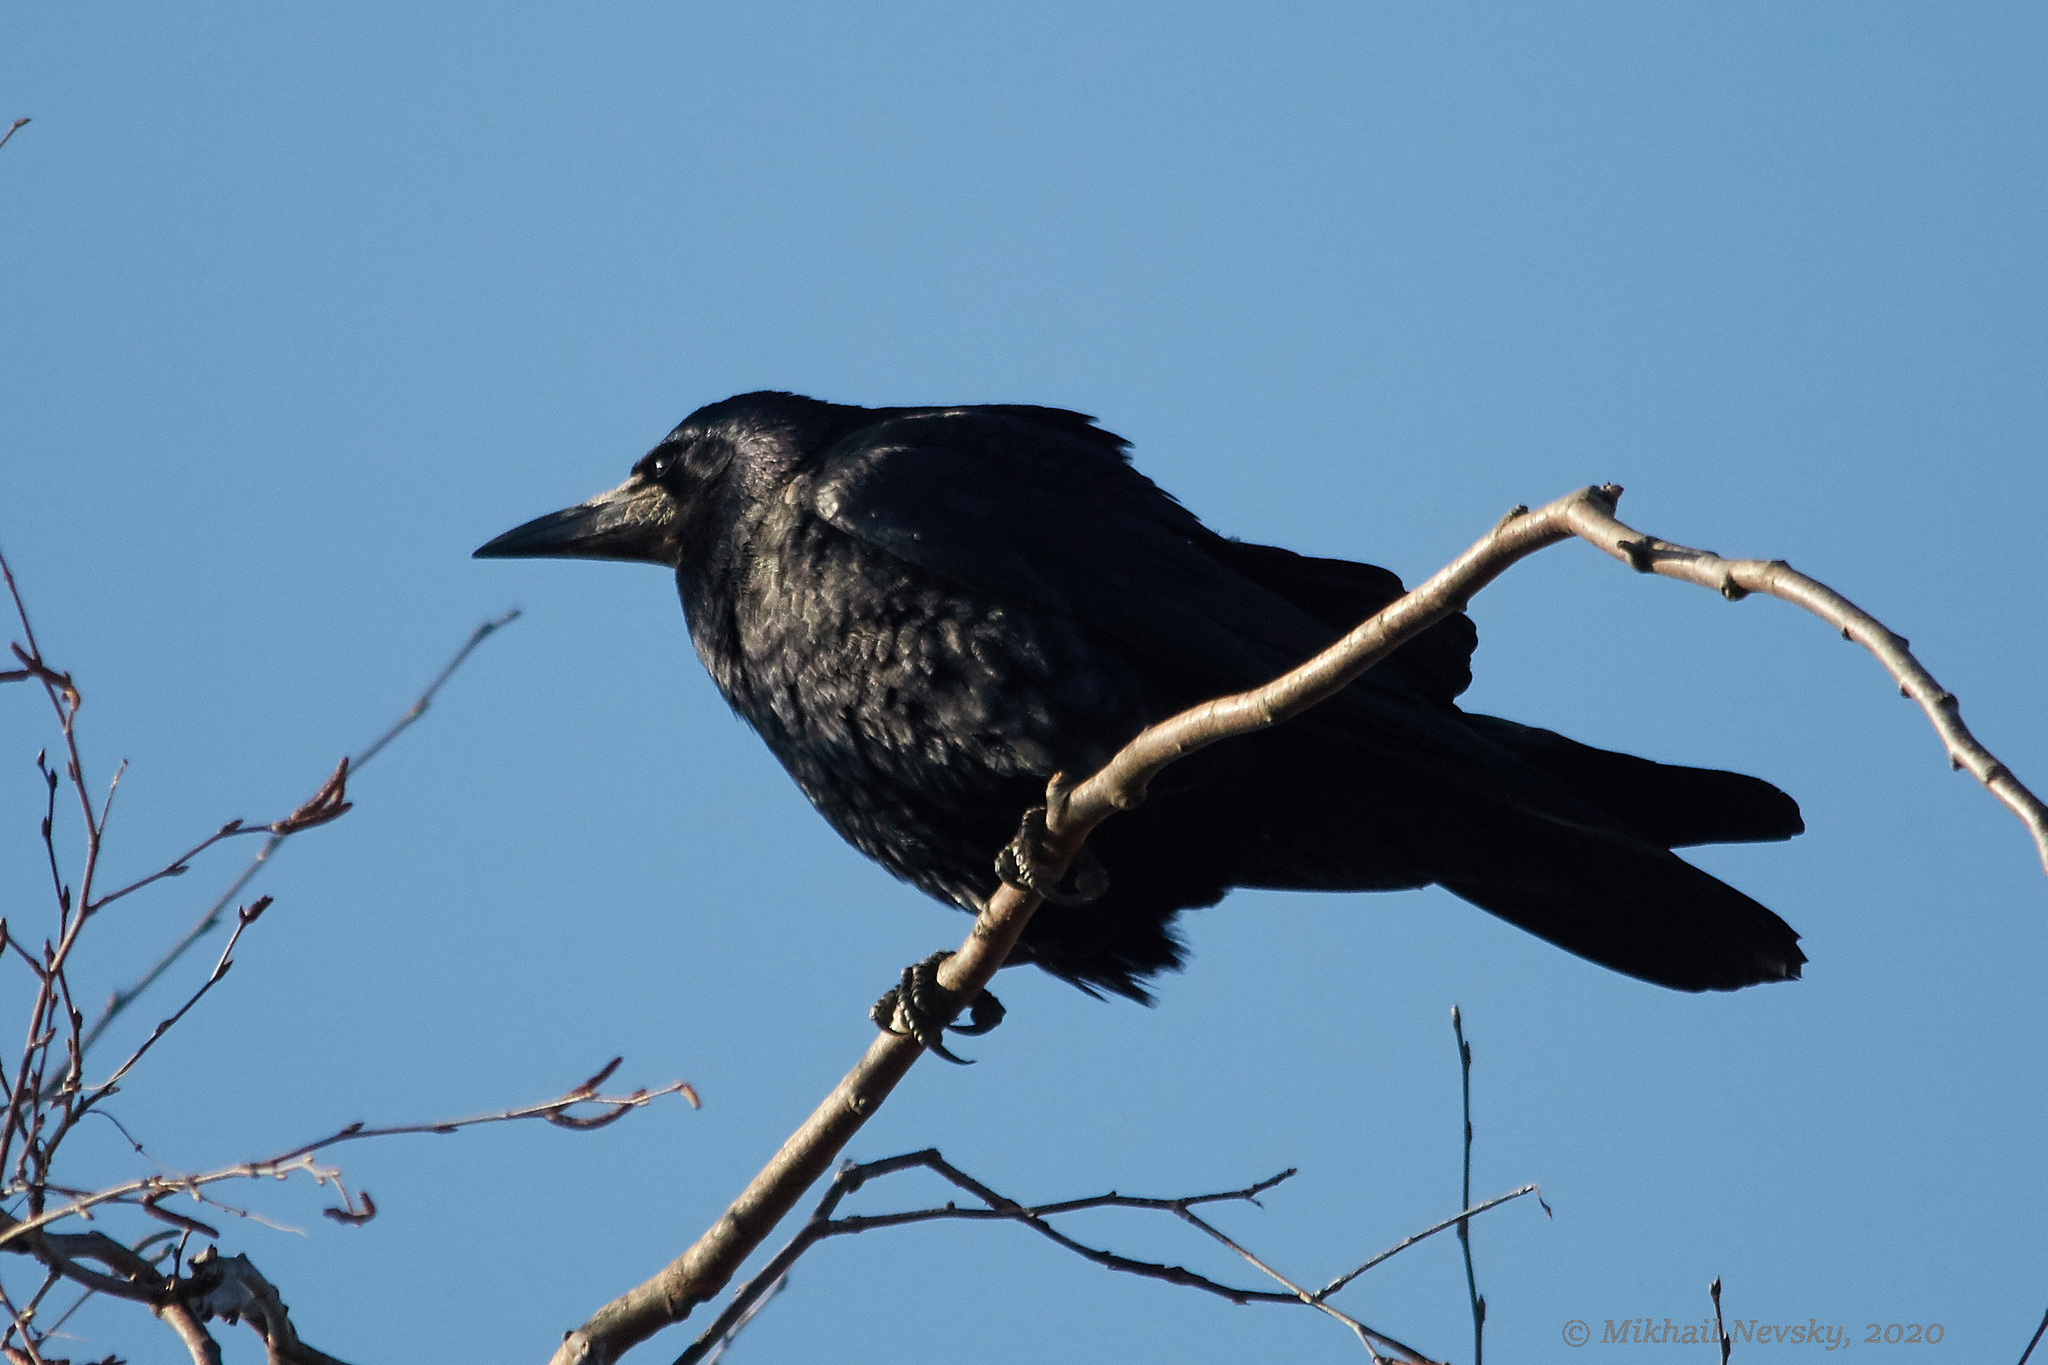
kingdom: Animalia
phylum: Chordata
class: Aves
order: Passeriformes
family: Corvidae
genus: Corvus
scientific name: Corvus frugilegus
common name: Rook
